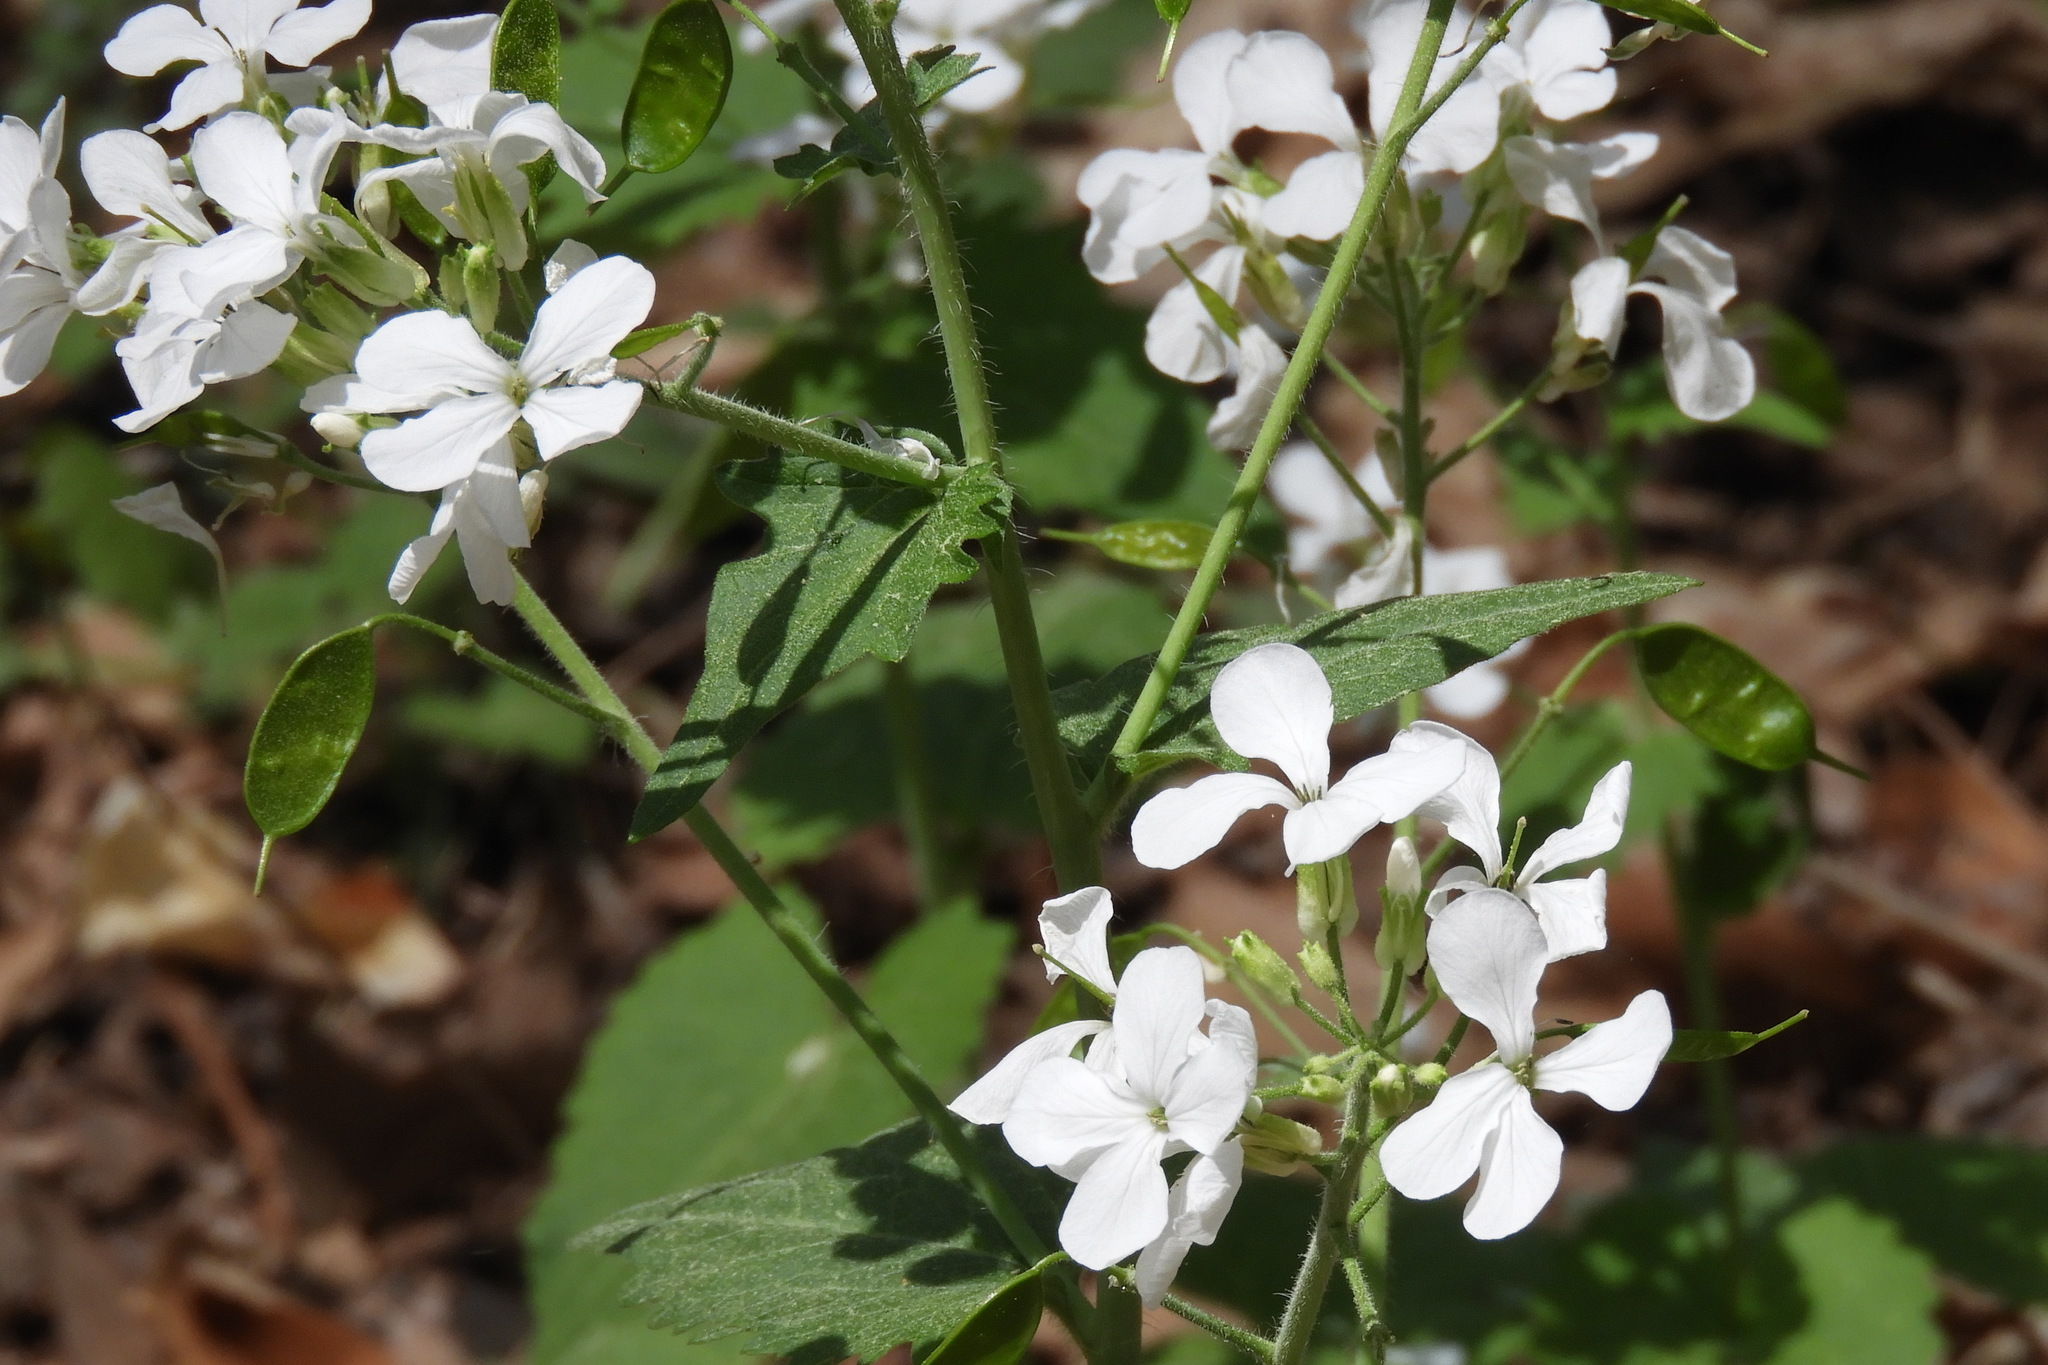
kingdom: Plantae
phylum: Tracheophyta
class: Magnoliopsida
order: Brassicales
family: Brassicaceae
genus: Lunaria
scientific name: Lunaria annua
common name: Honesty
